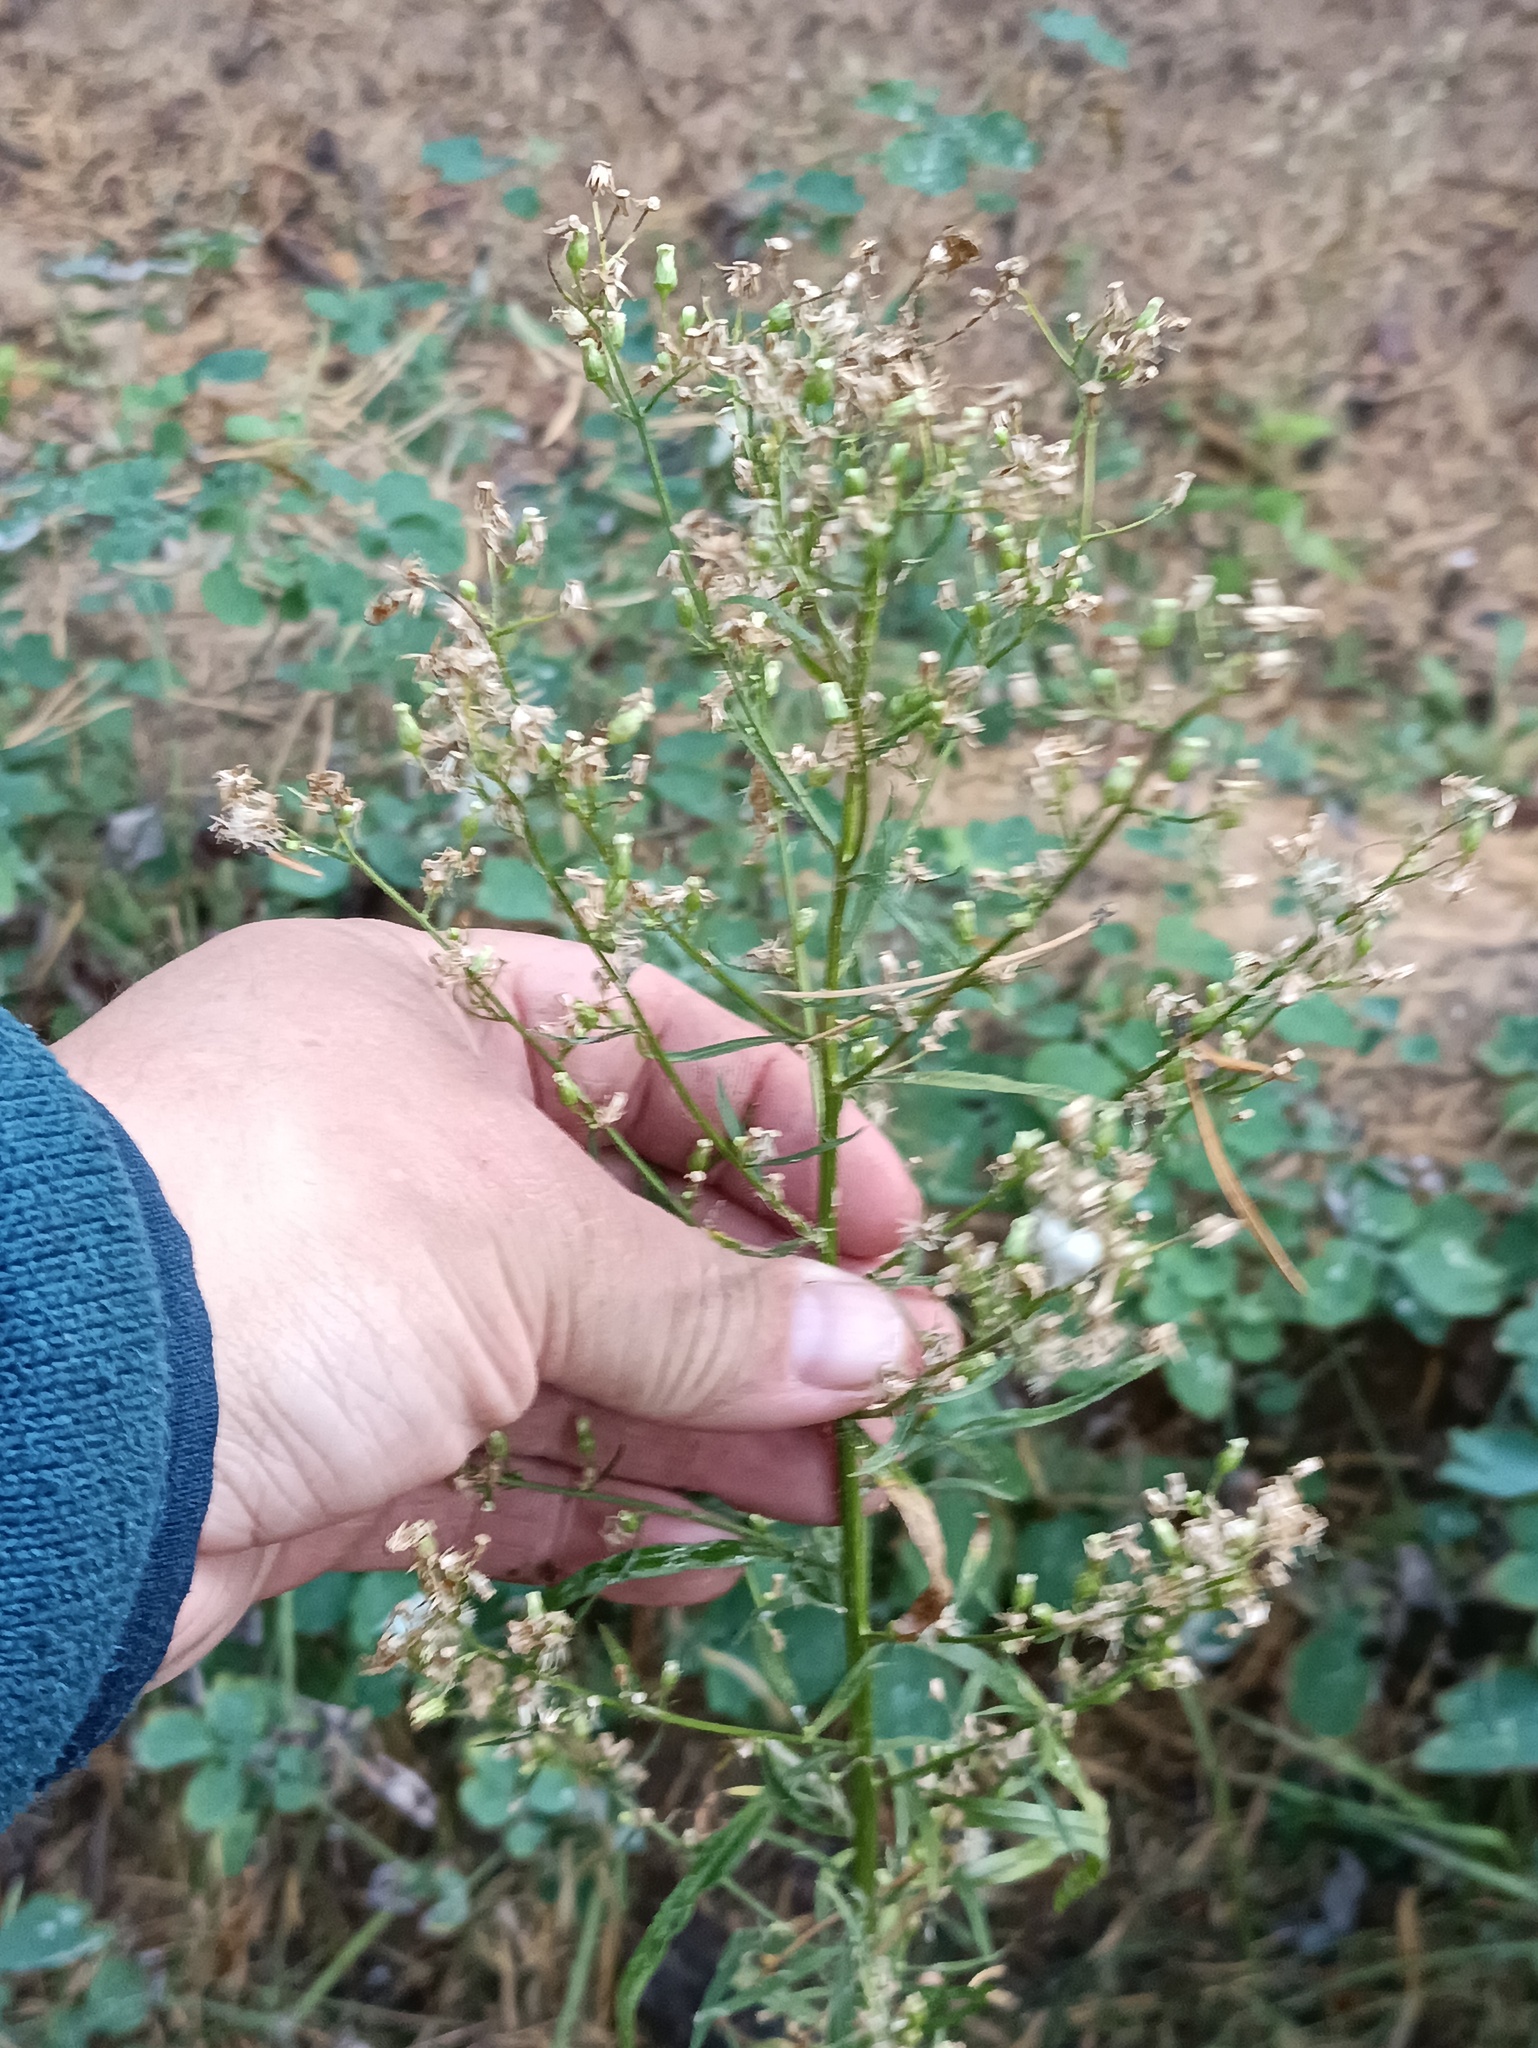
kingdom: Plantae
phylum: Tracheophyta
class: Magnoliopsida
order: Asterales
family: Asteraceae
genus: Erigeron
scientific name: Erigeron canadensis
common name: Canadian fleabane
